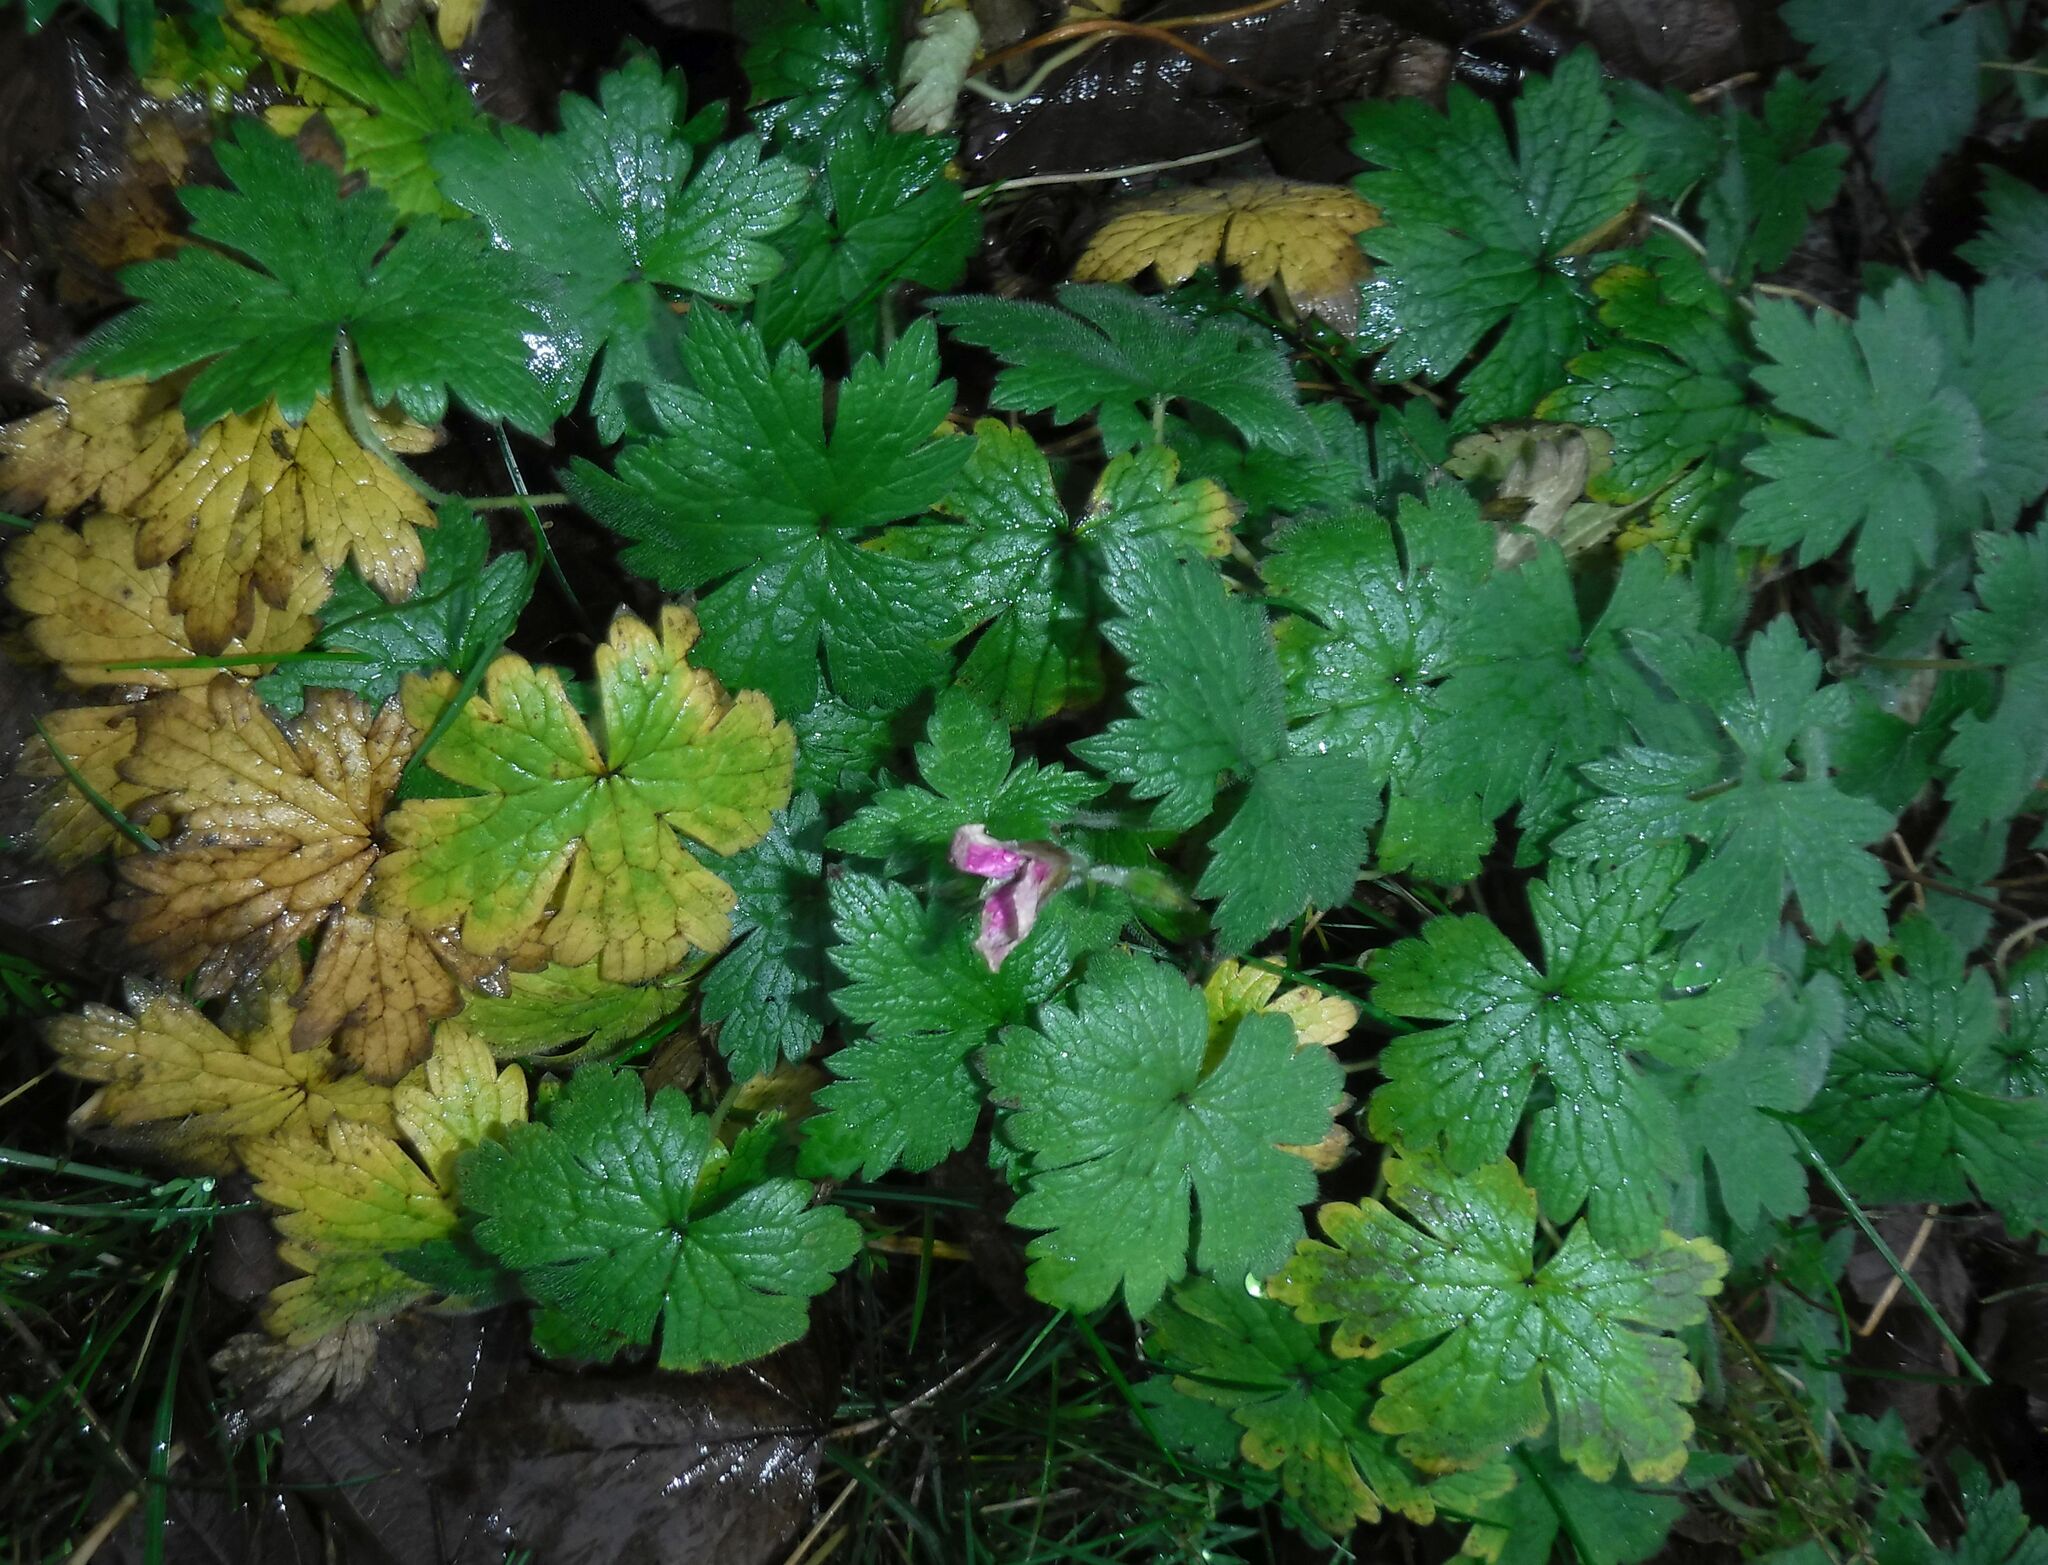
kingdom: Plantae
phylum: Tracheophyta
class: Magnoliopsida
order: Geraniales
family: Geraniaceae
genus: Geranium
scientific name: Geranium macrorrhizum
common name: Rock crane's-bill
